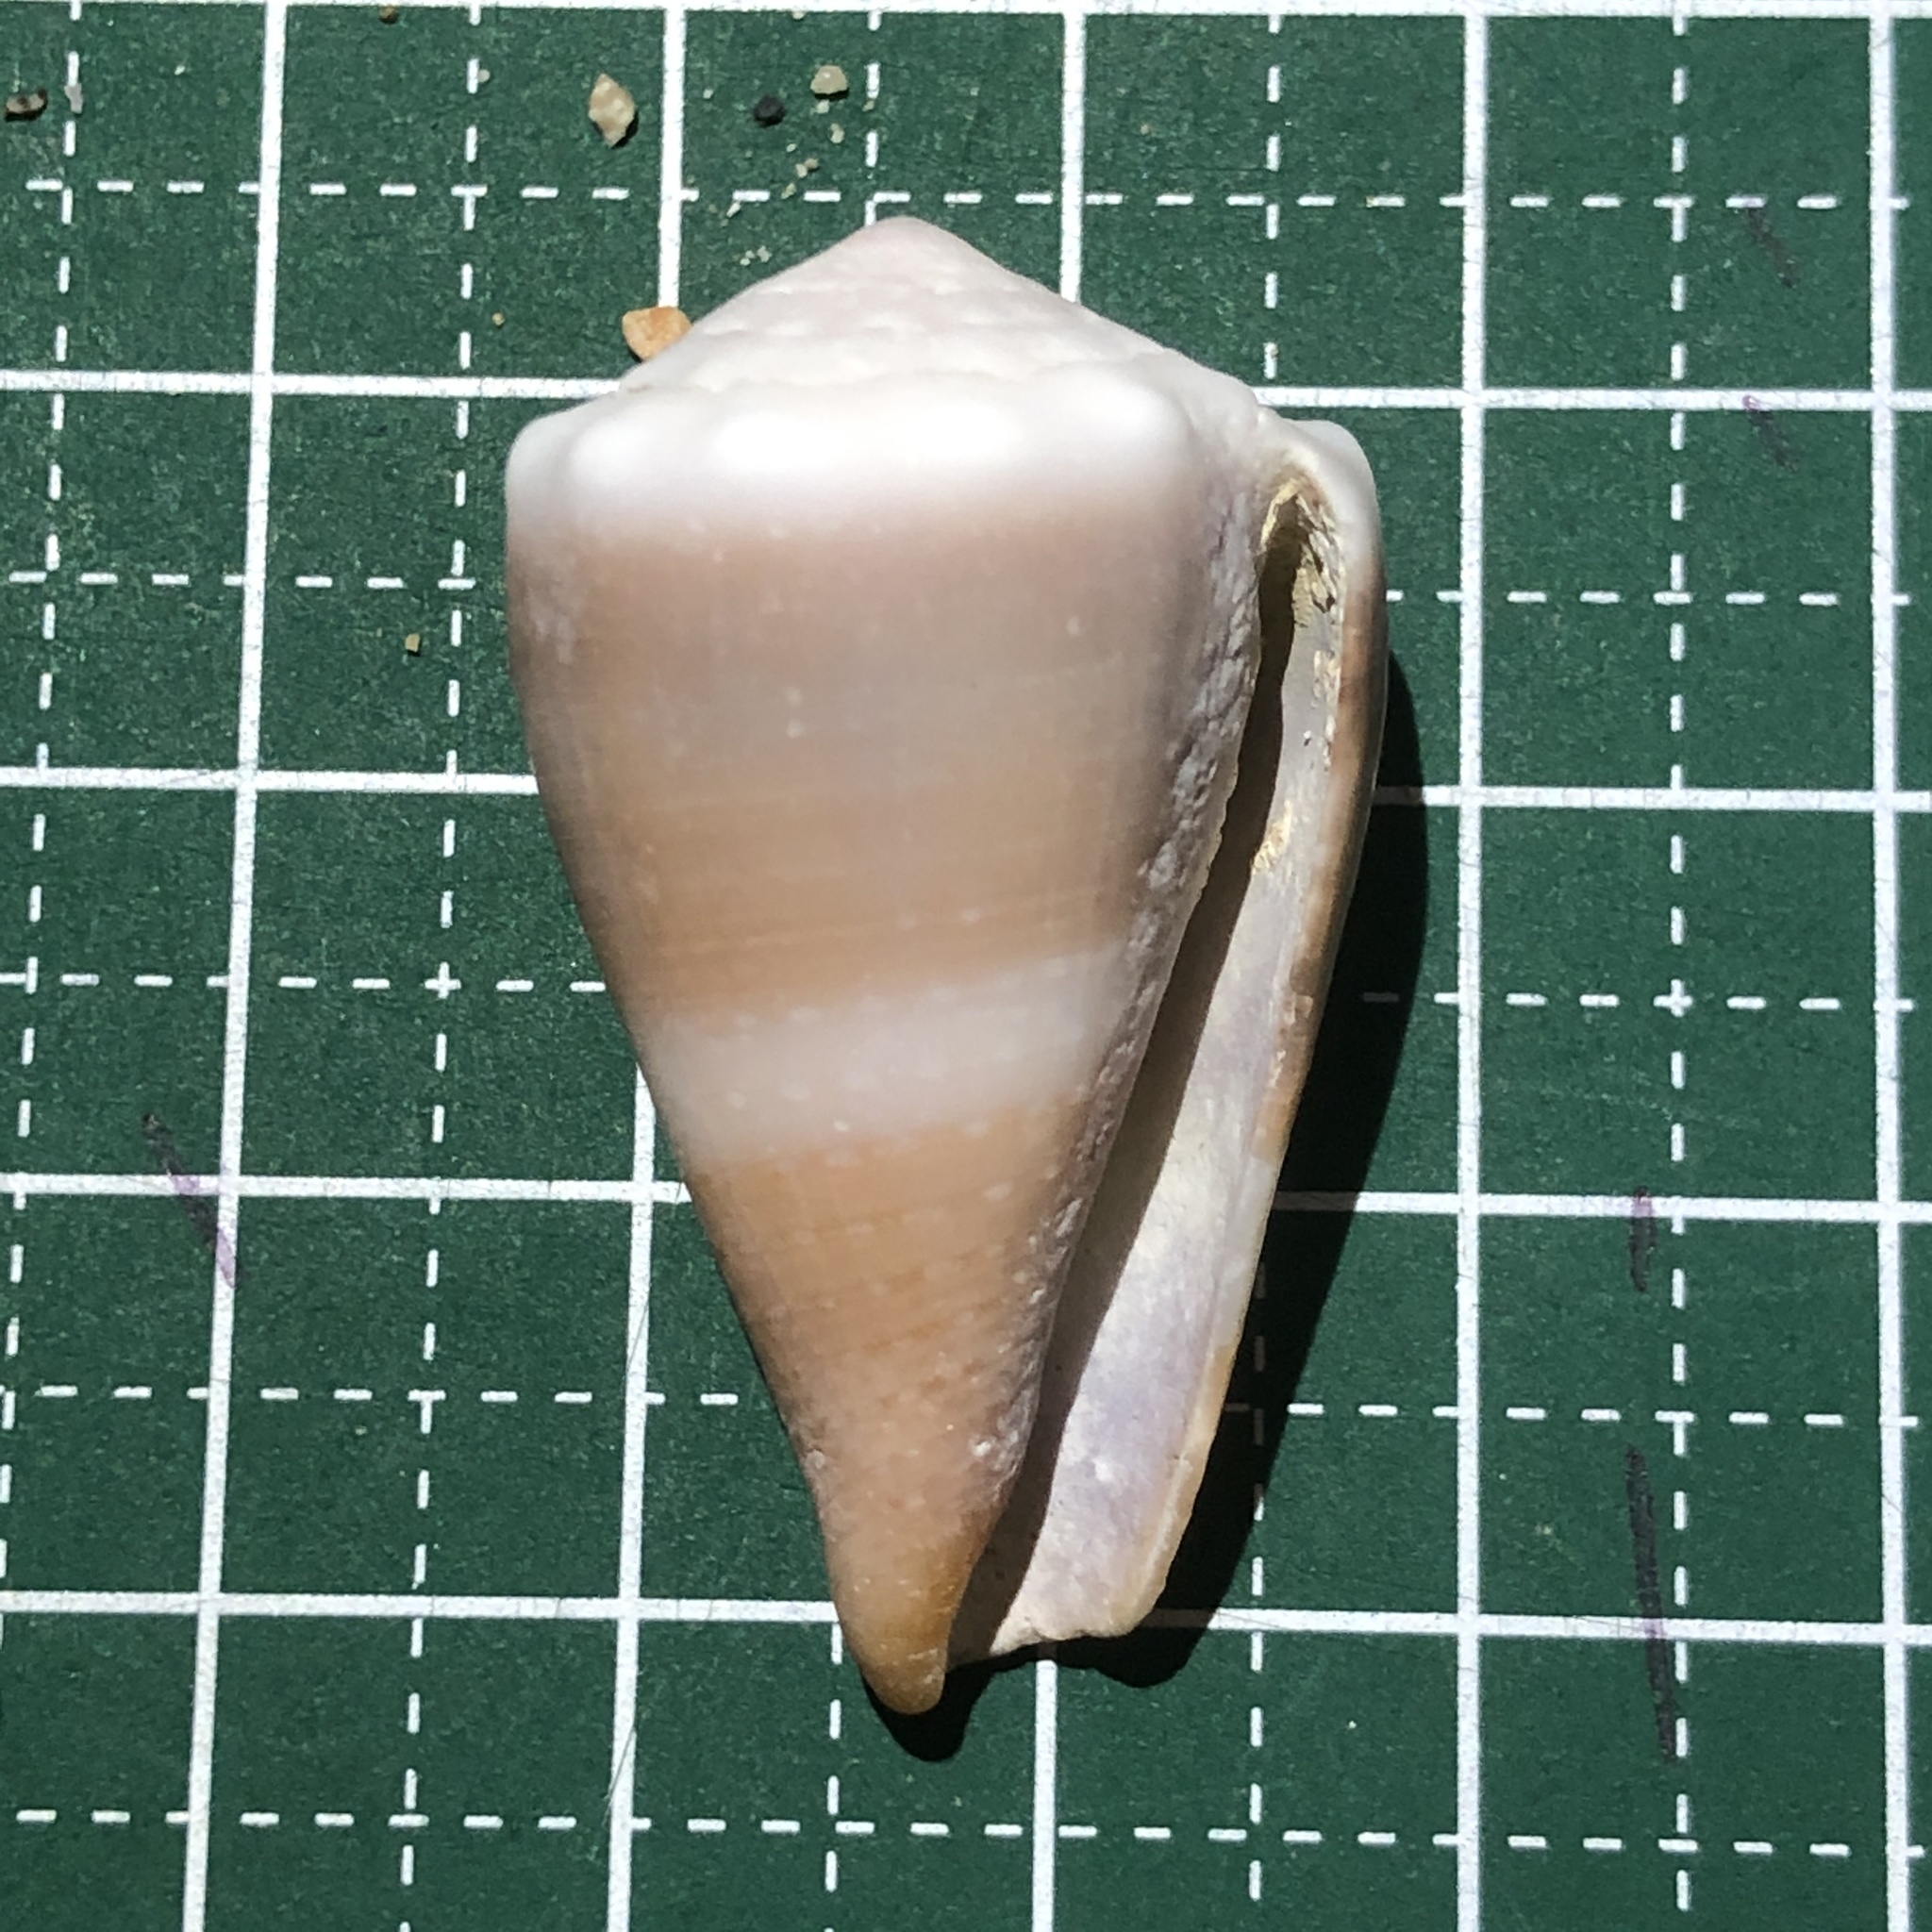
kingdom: Animalia
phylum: Mollusca
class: Gastropoda
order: Neogastropoda
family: Conidae
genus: Conus
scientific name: Conus lividus
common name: Livid cone
